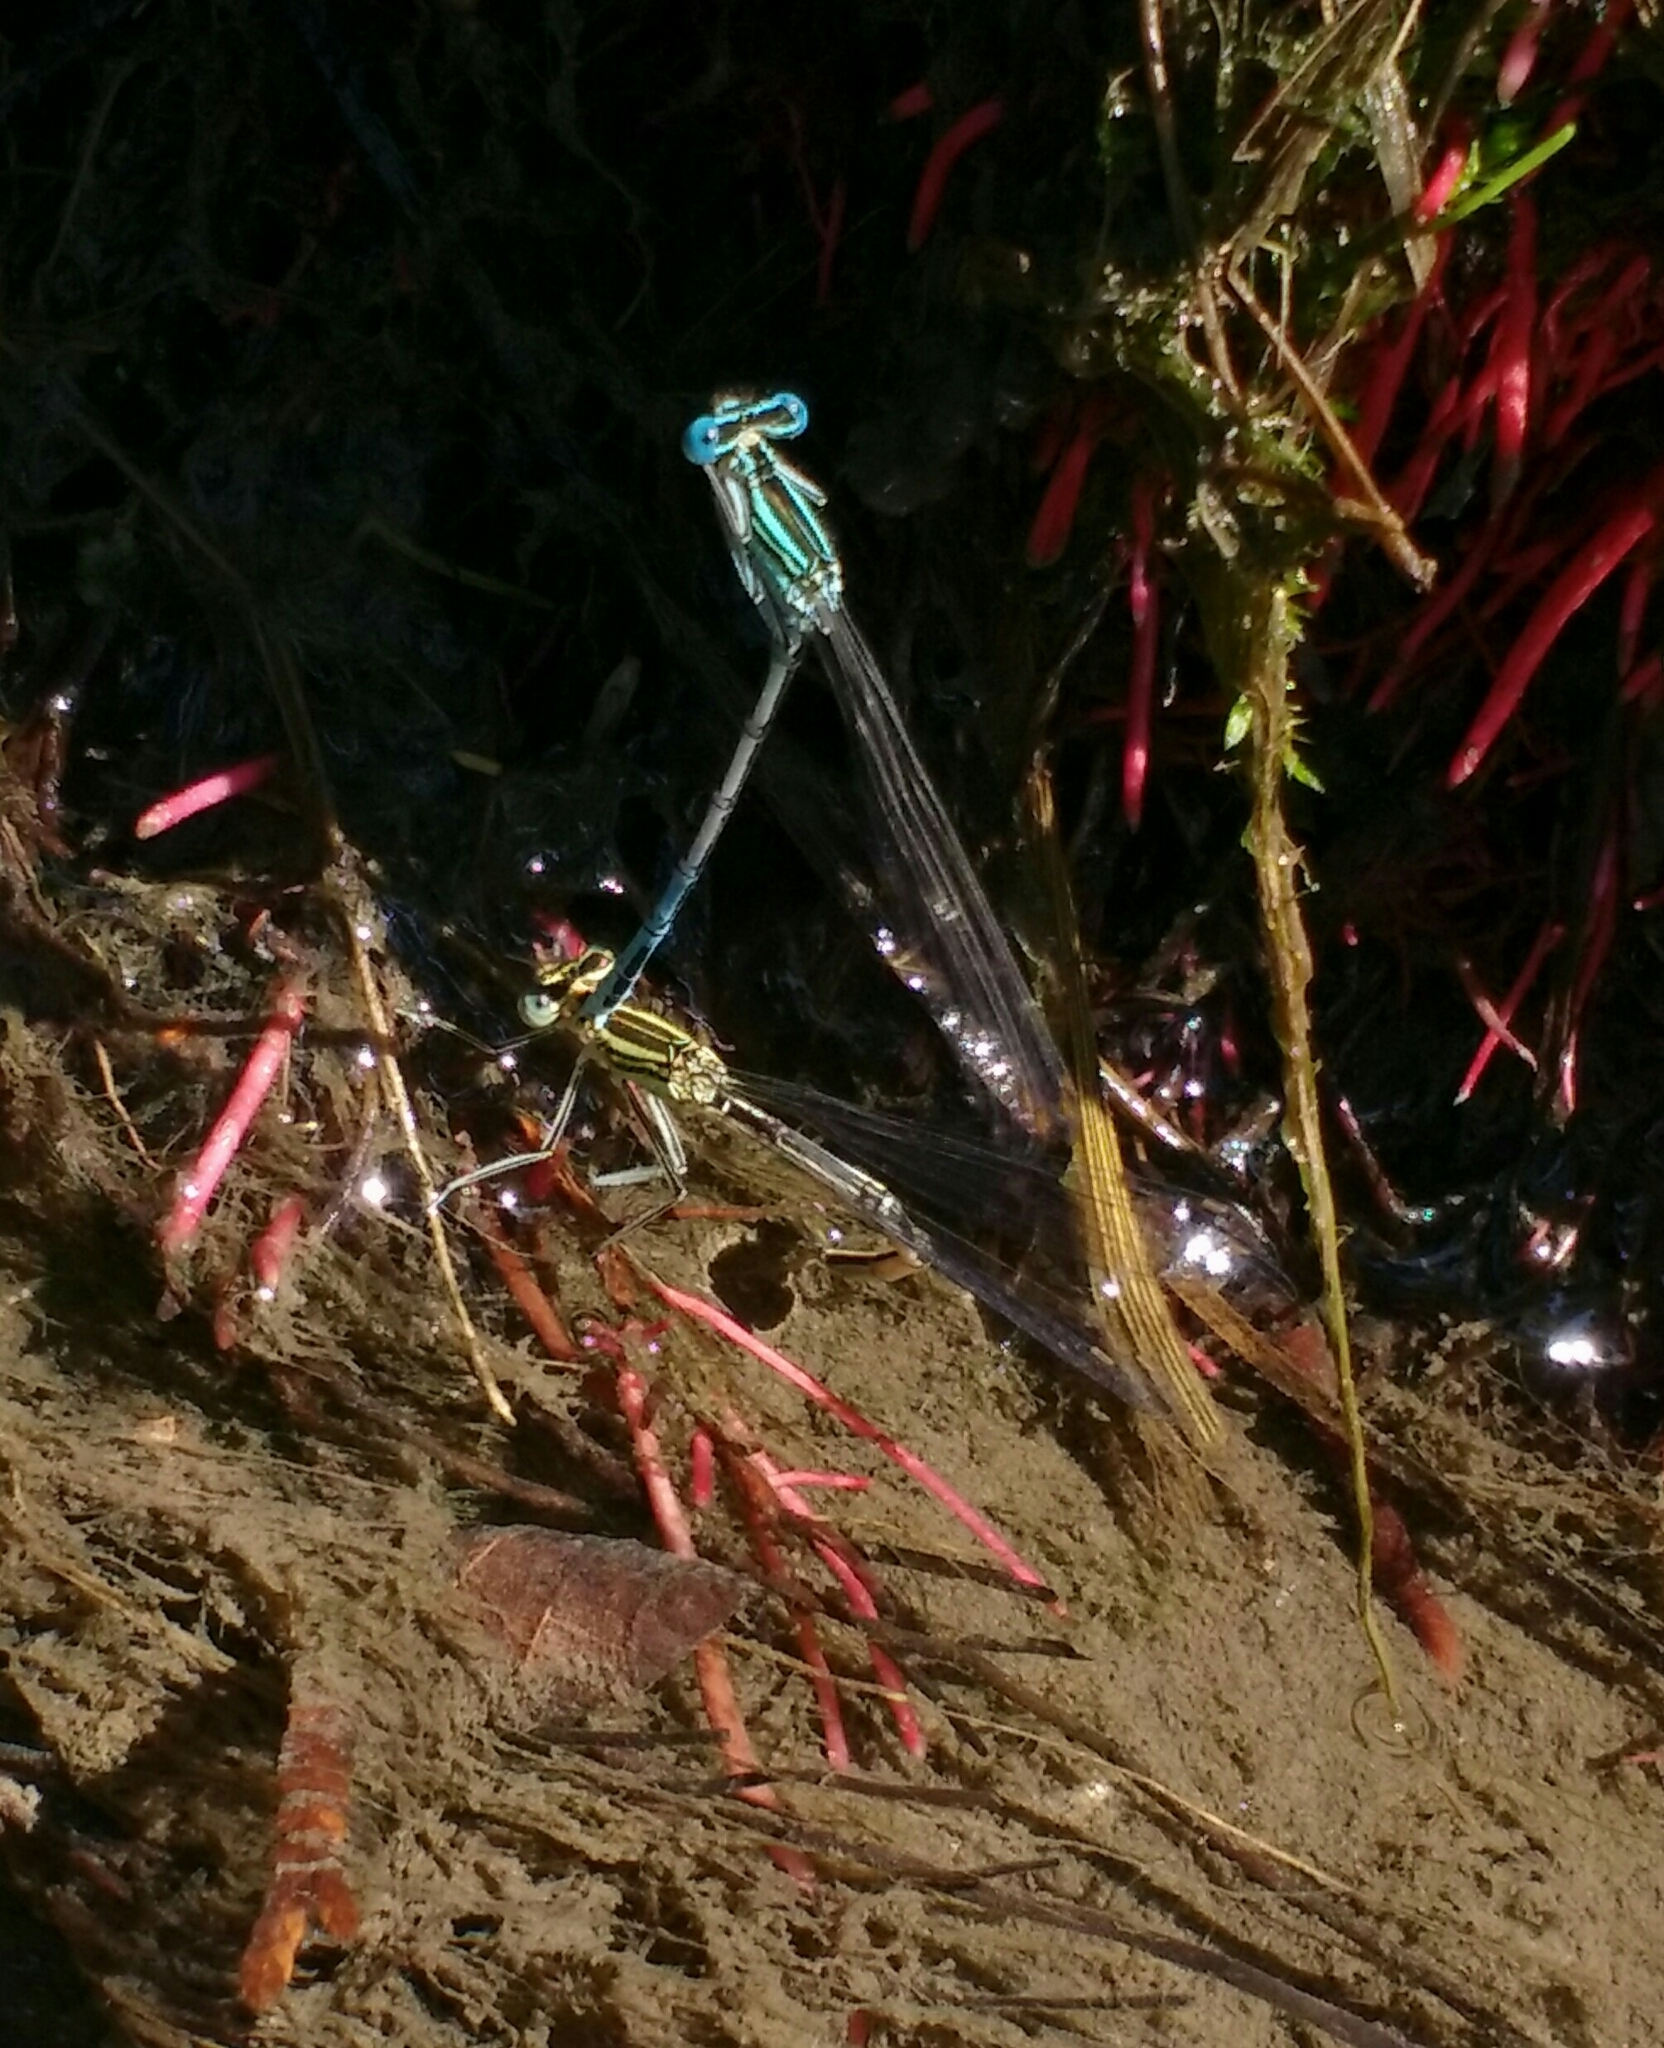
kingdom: Animalia
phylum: Arthropoda
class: Insecta
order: Odonata
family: Platycnemididae
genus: Platycnemis
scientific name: Platycnemis pennipes
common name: White-legged damselfly
